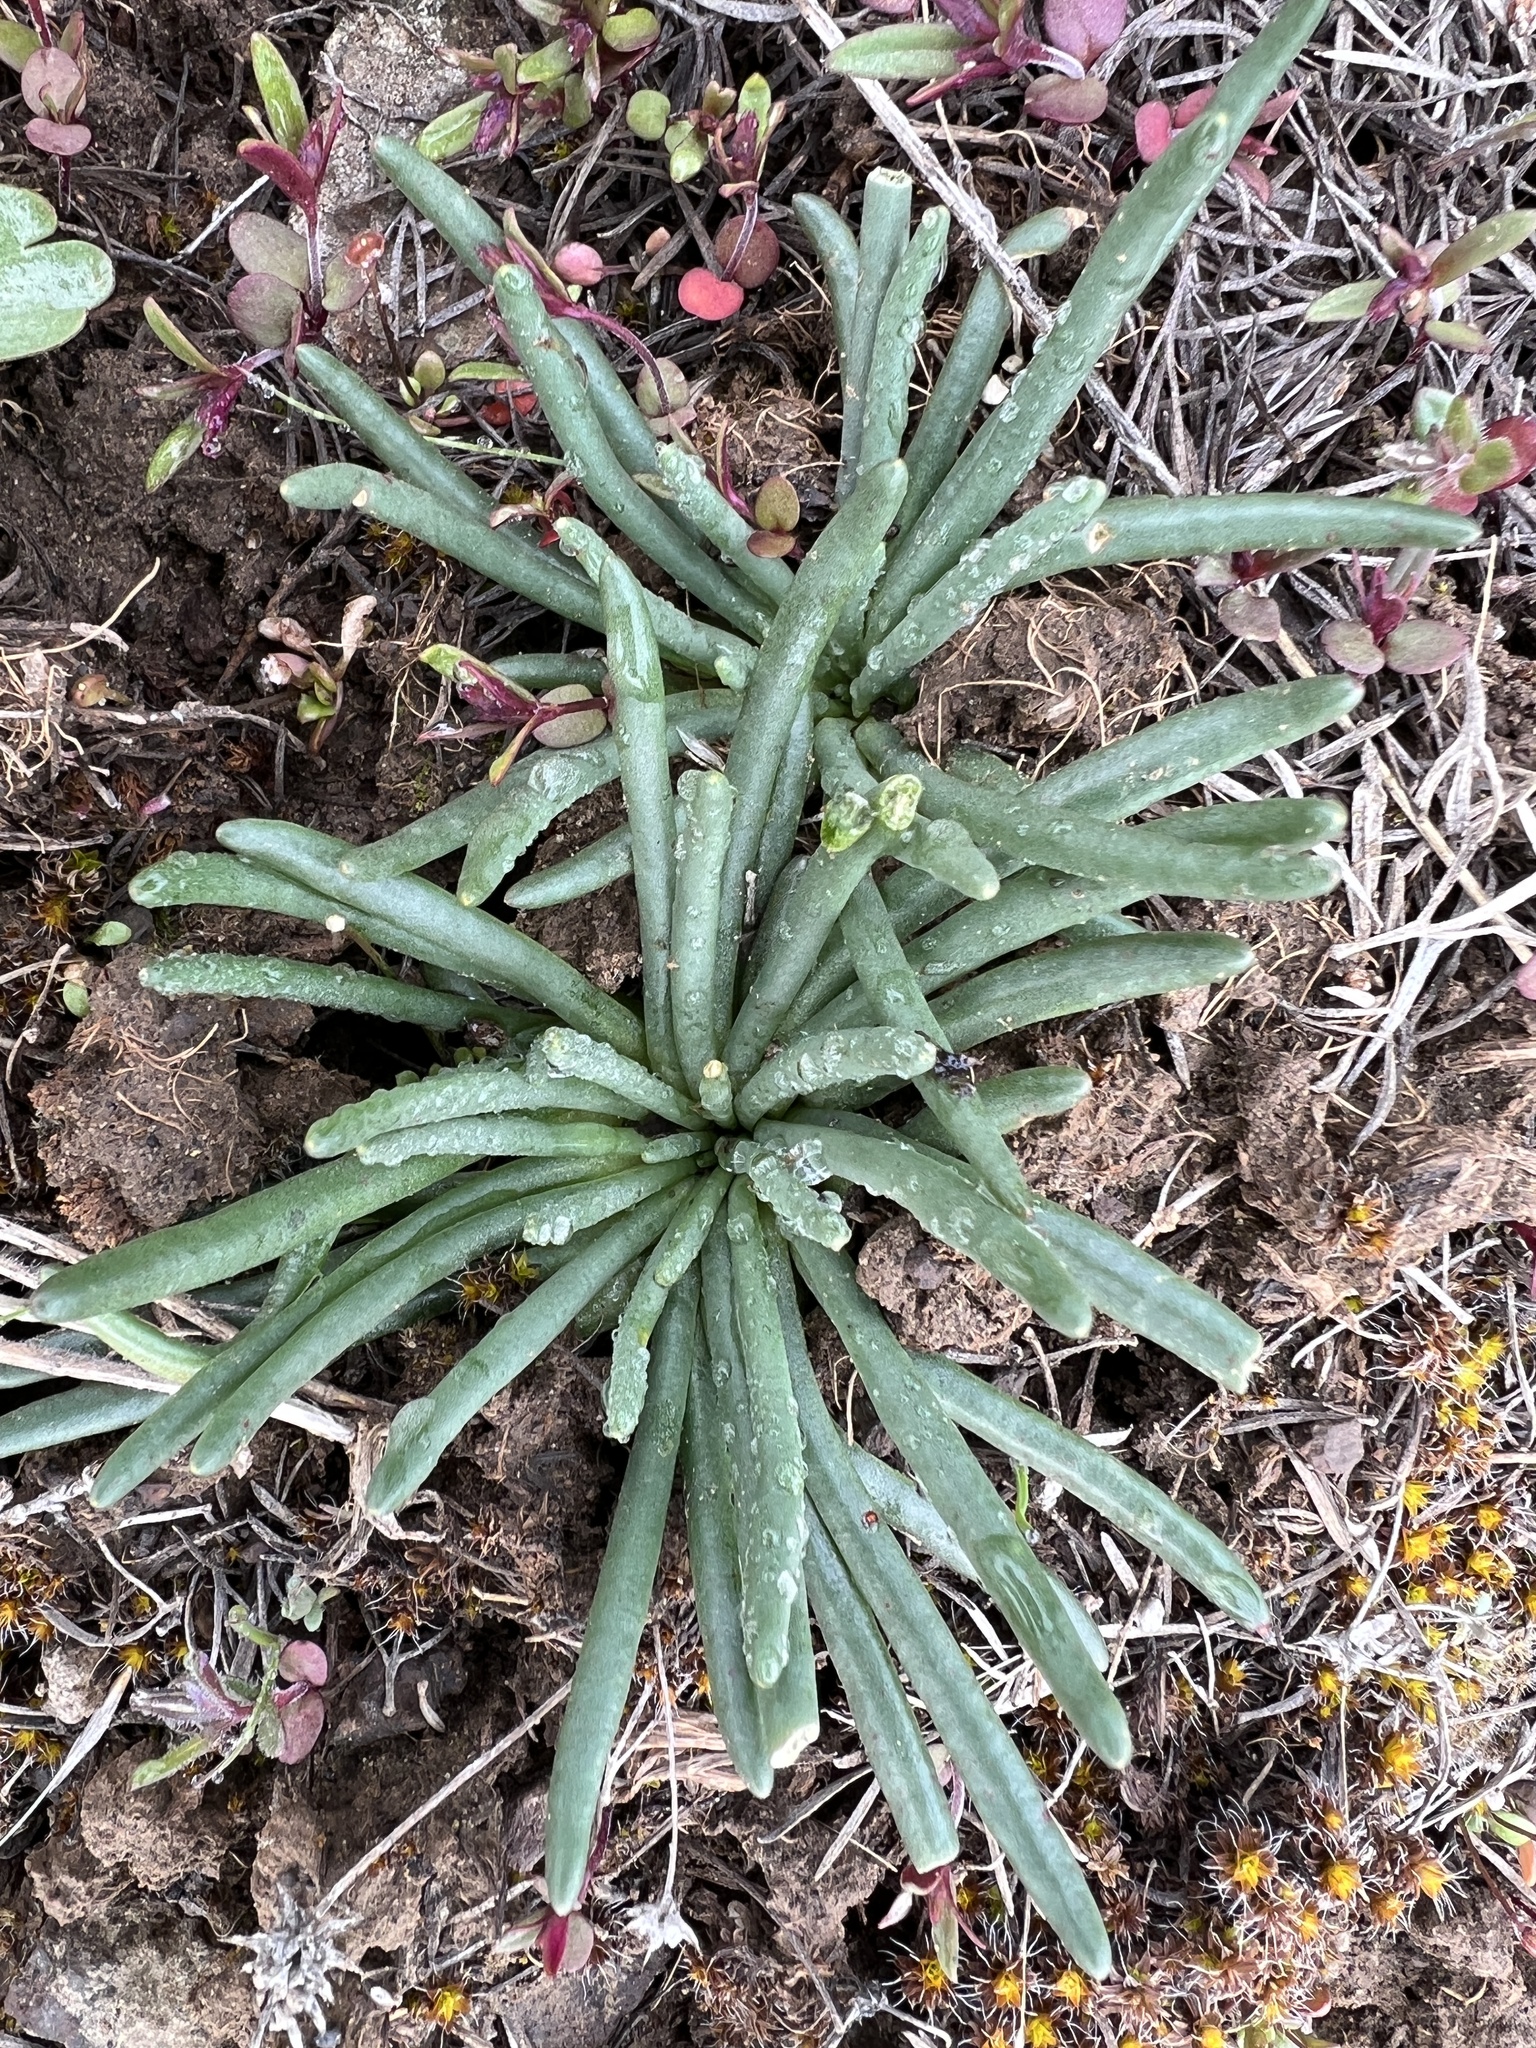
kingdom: Plantae
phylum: Tracheophyta
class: Magnoliopsida
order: Caryophyllales
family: Montiaceae
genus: Lewisia
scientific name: Lewisia rediviva
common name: Bitter-root
